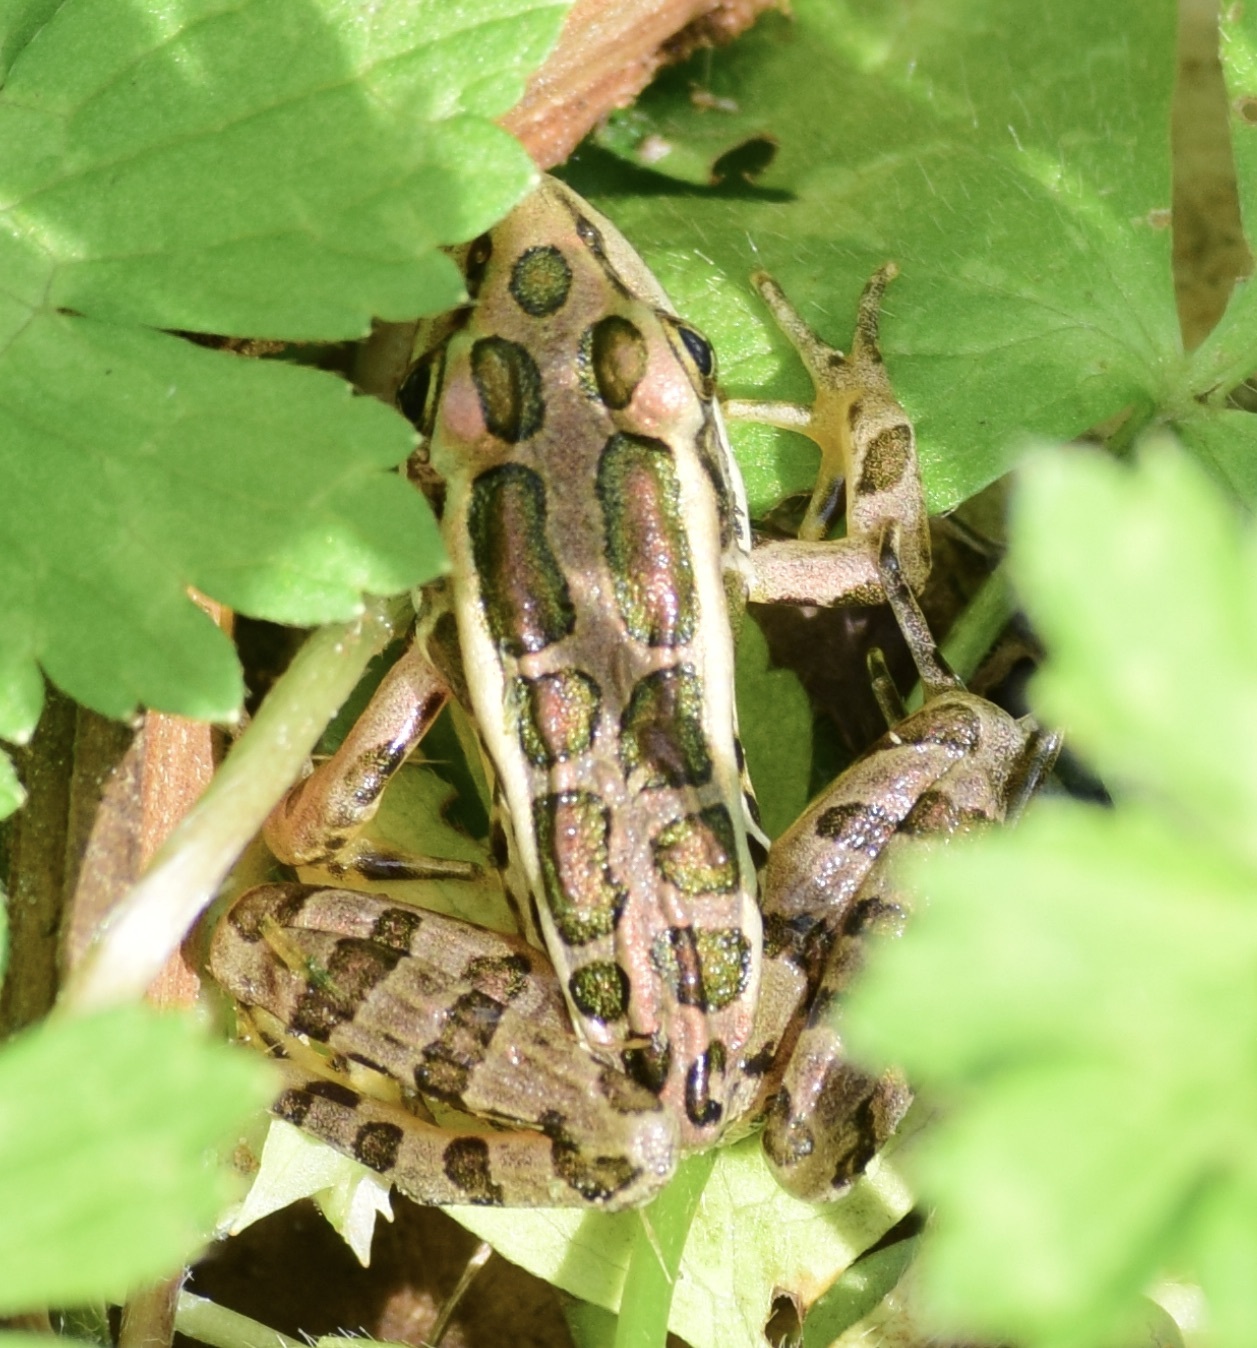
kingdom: Animalia
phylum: Chordata
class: Amphibia
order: Anura
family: Ranidae
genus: Lithobates
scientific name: Lithobates palustris
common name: Pickerel frog
